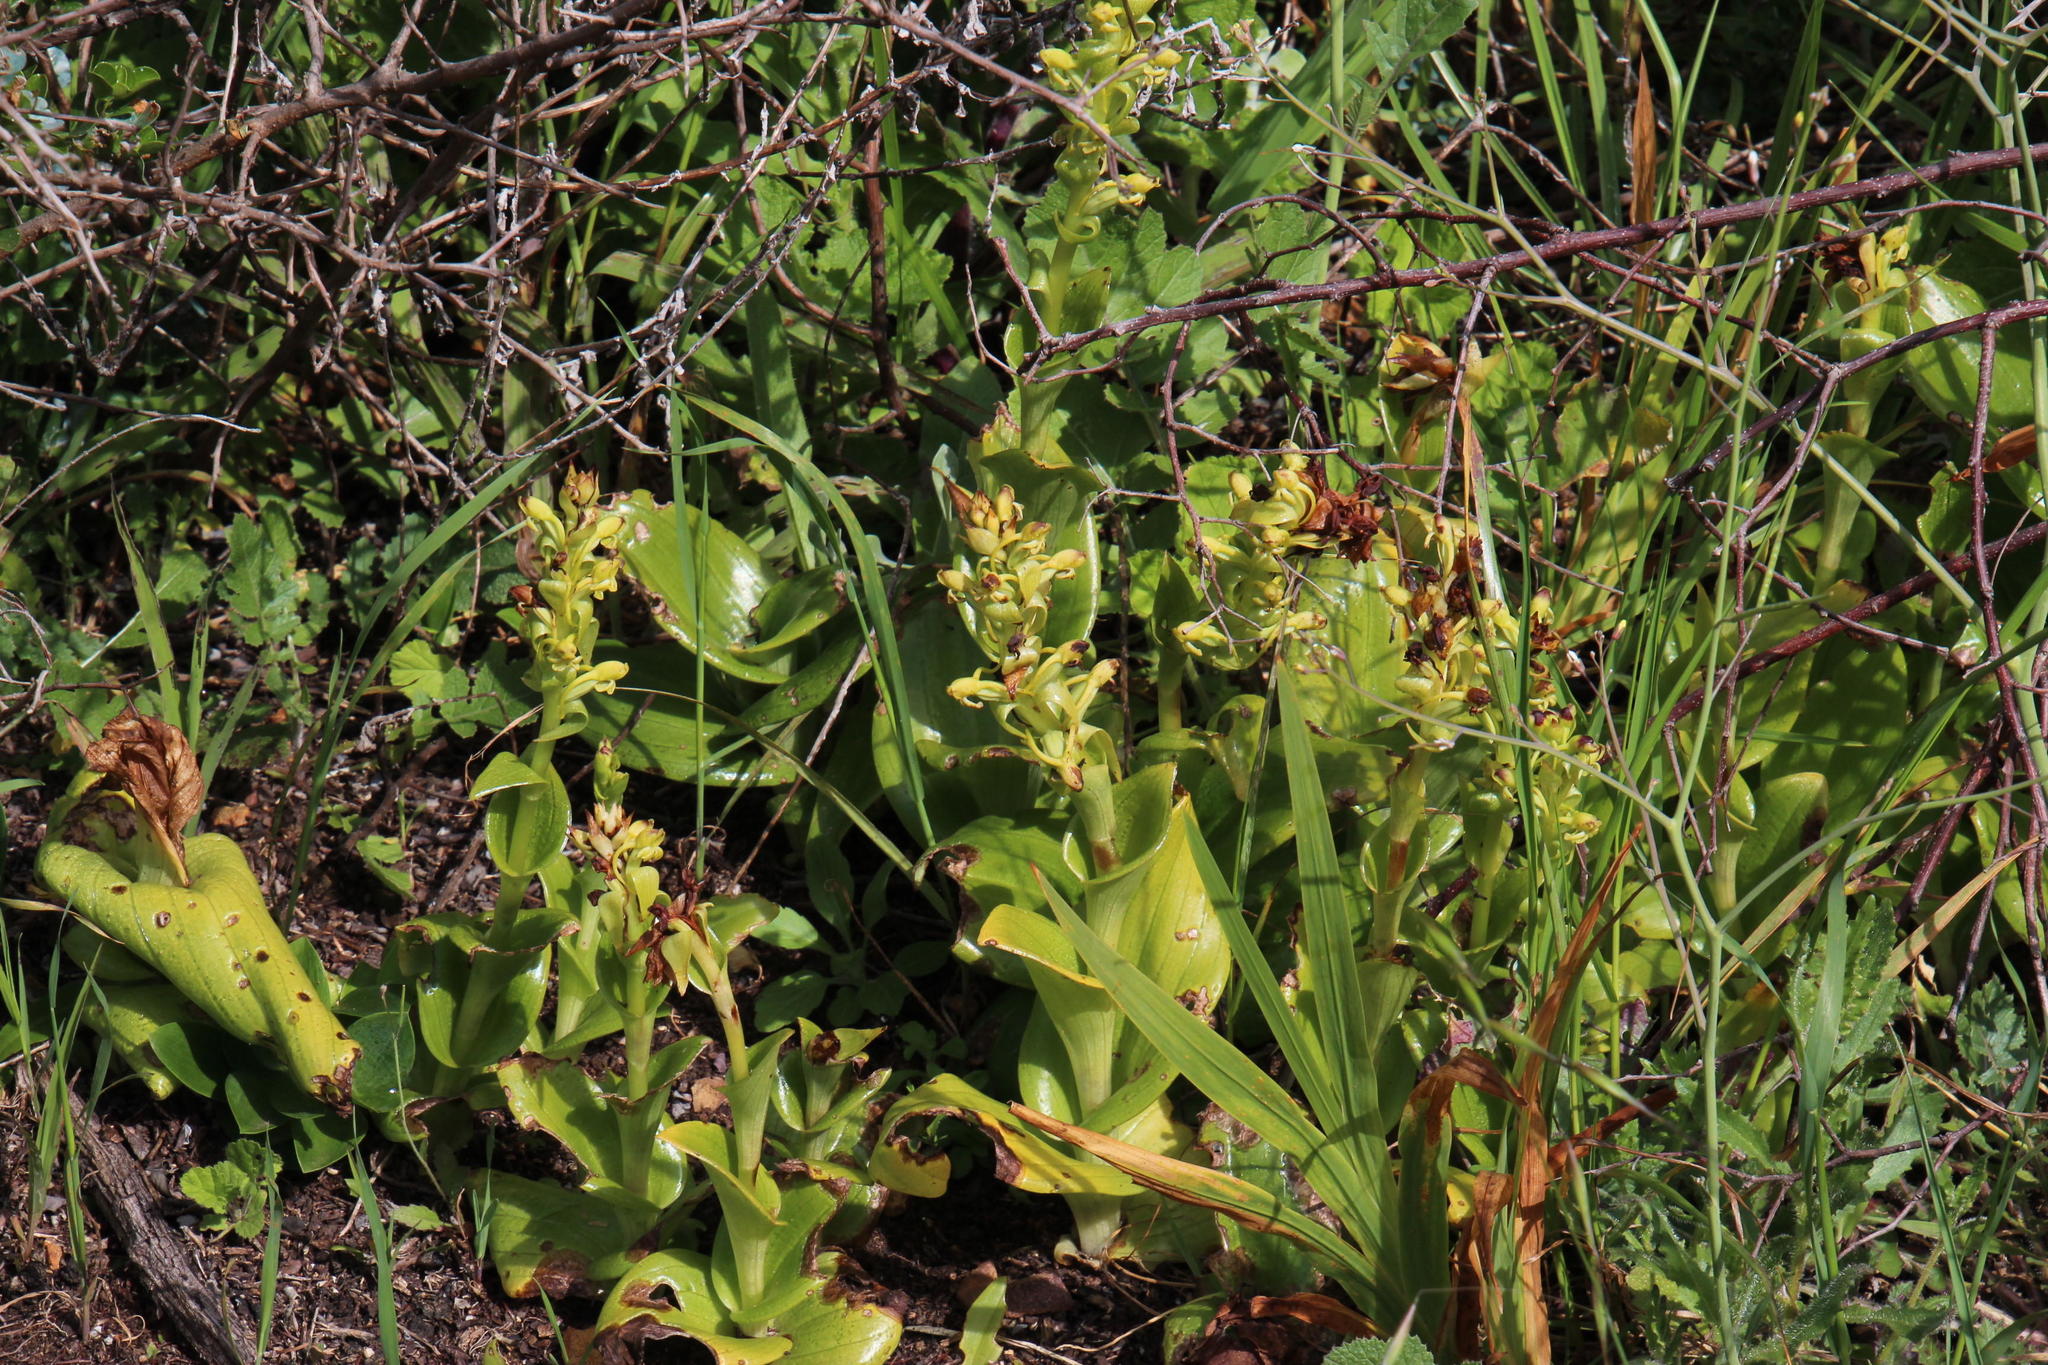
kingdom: Plantae
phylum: Tracheophyta
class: Liliopsida
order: Asparagales
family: Orchidaceae
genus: Satyrium
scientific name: Satyrium odorum
